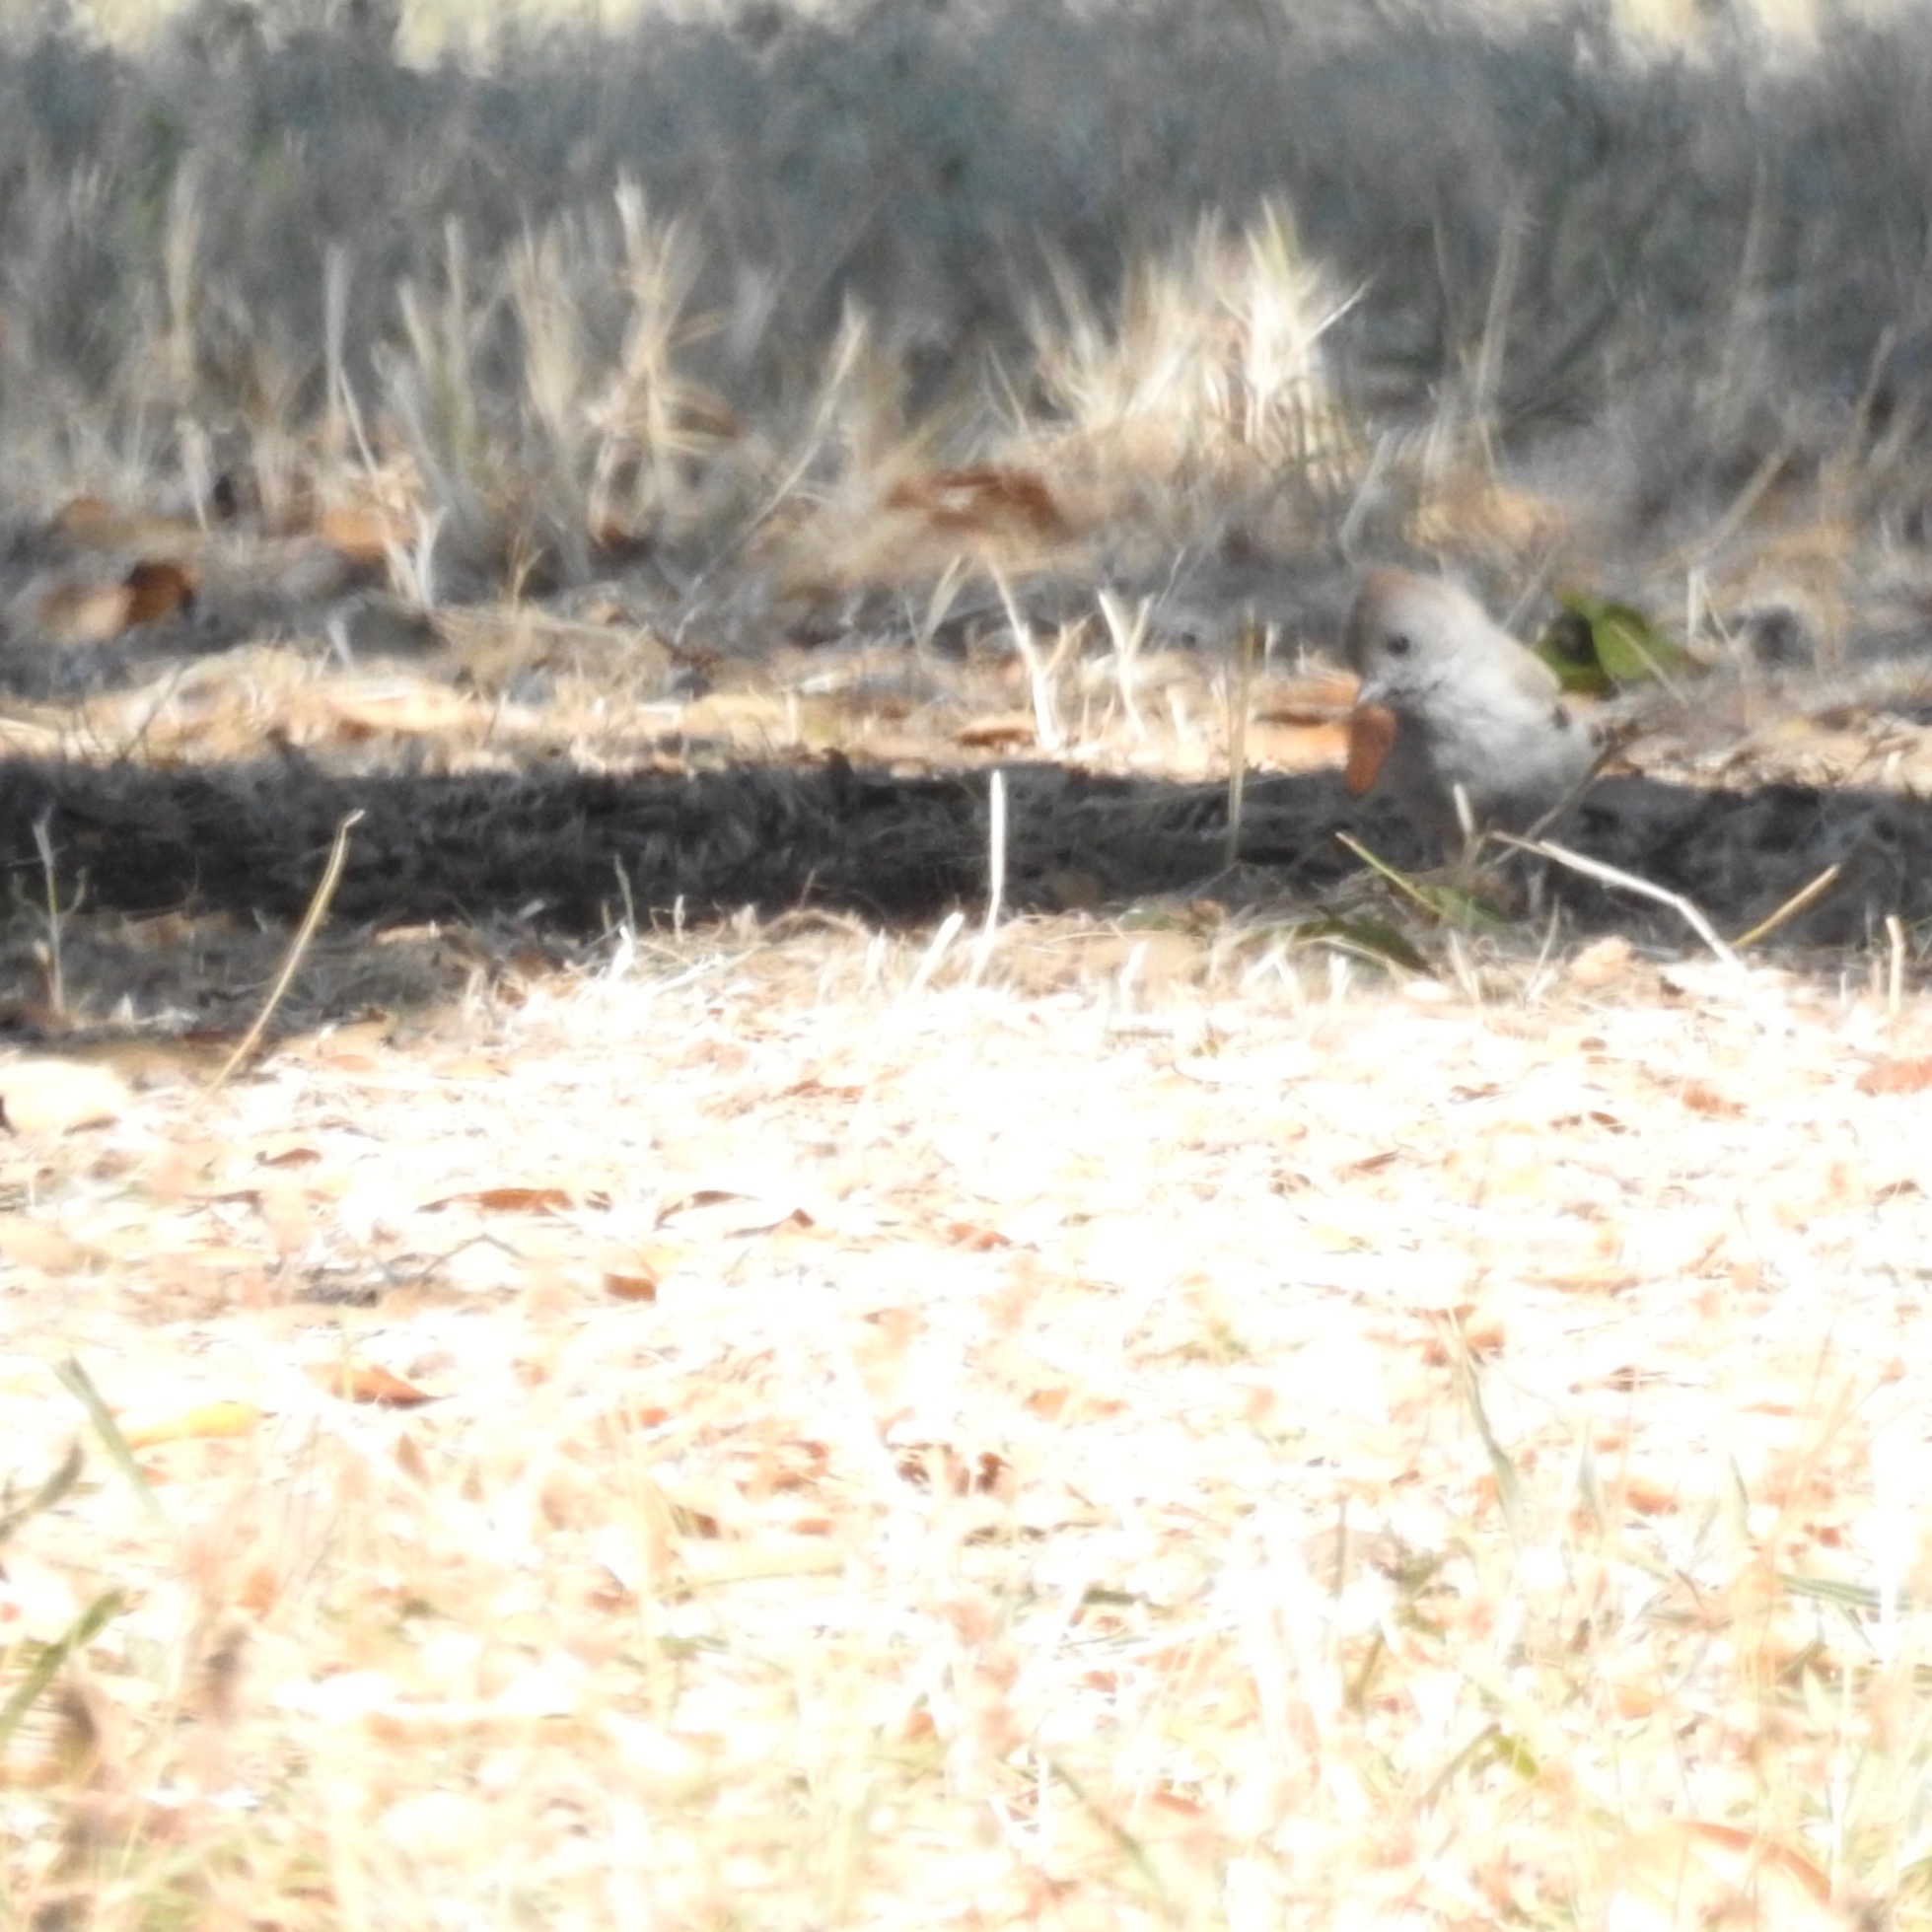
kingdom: Animalia
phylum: Chordata
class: Aves
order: Passeriformes
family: Paridae
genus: Baeolophus
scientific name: Baeolophus inornatus
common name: Oak titmouse
